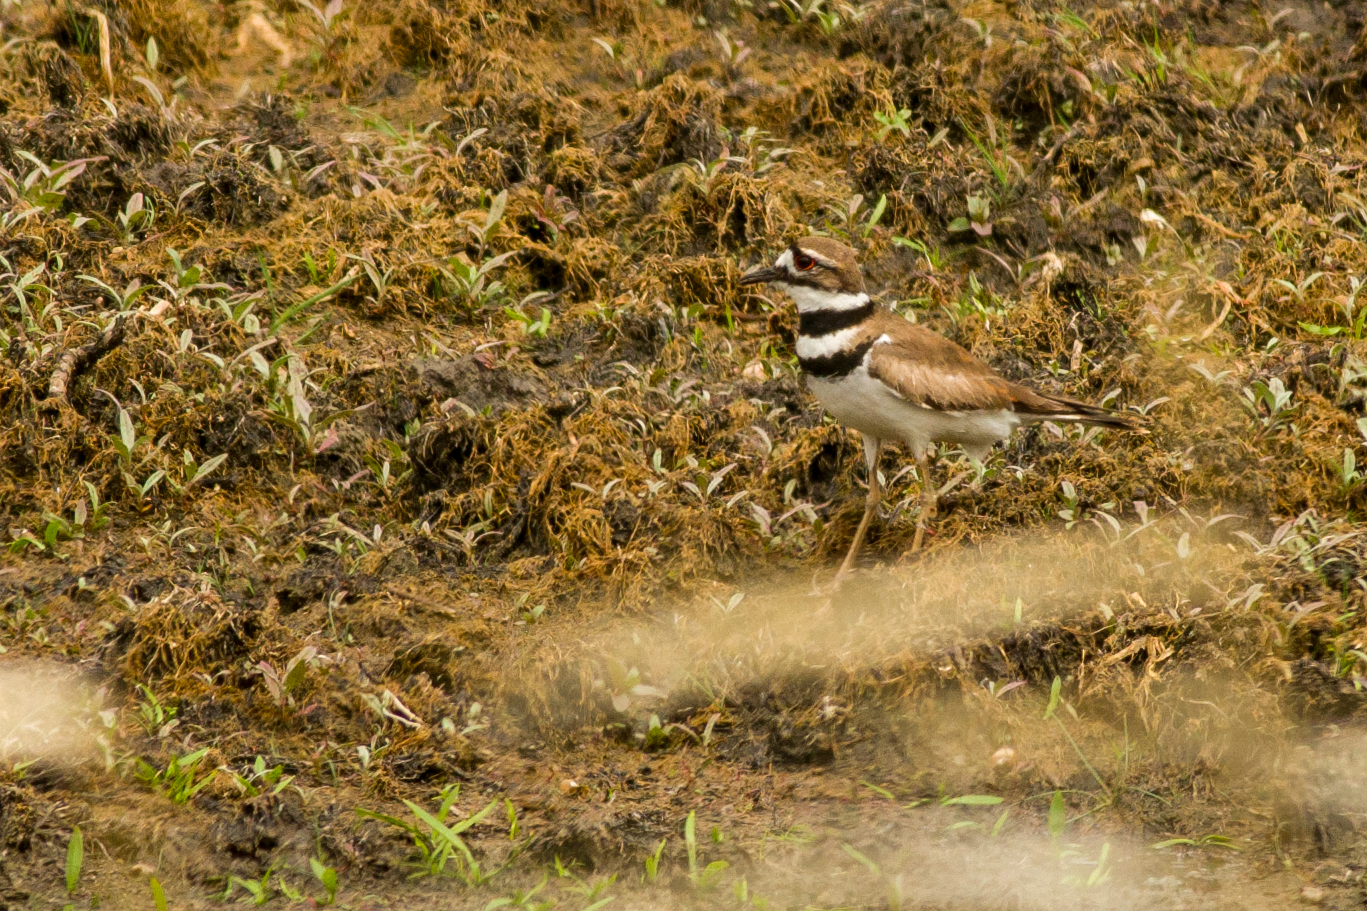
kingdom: Animalia
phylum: Chordata
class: Aves
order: Charadriiformes
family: Charadriidae
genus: Charadrius
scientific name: Charadrius vociferus
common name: Killdeer
